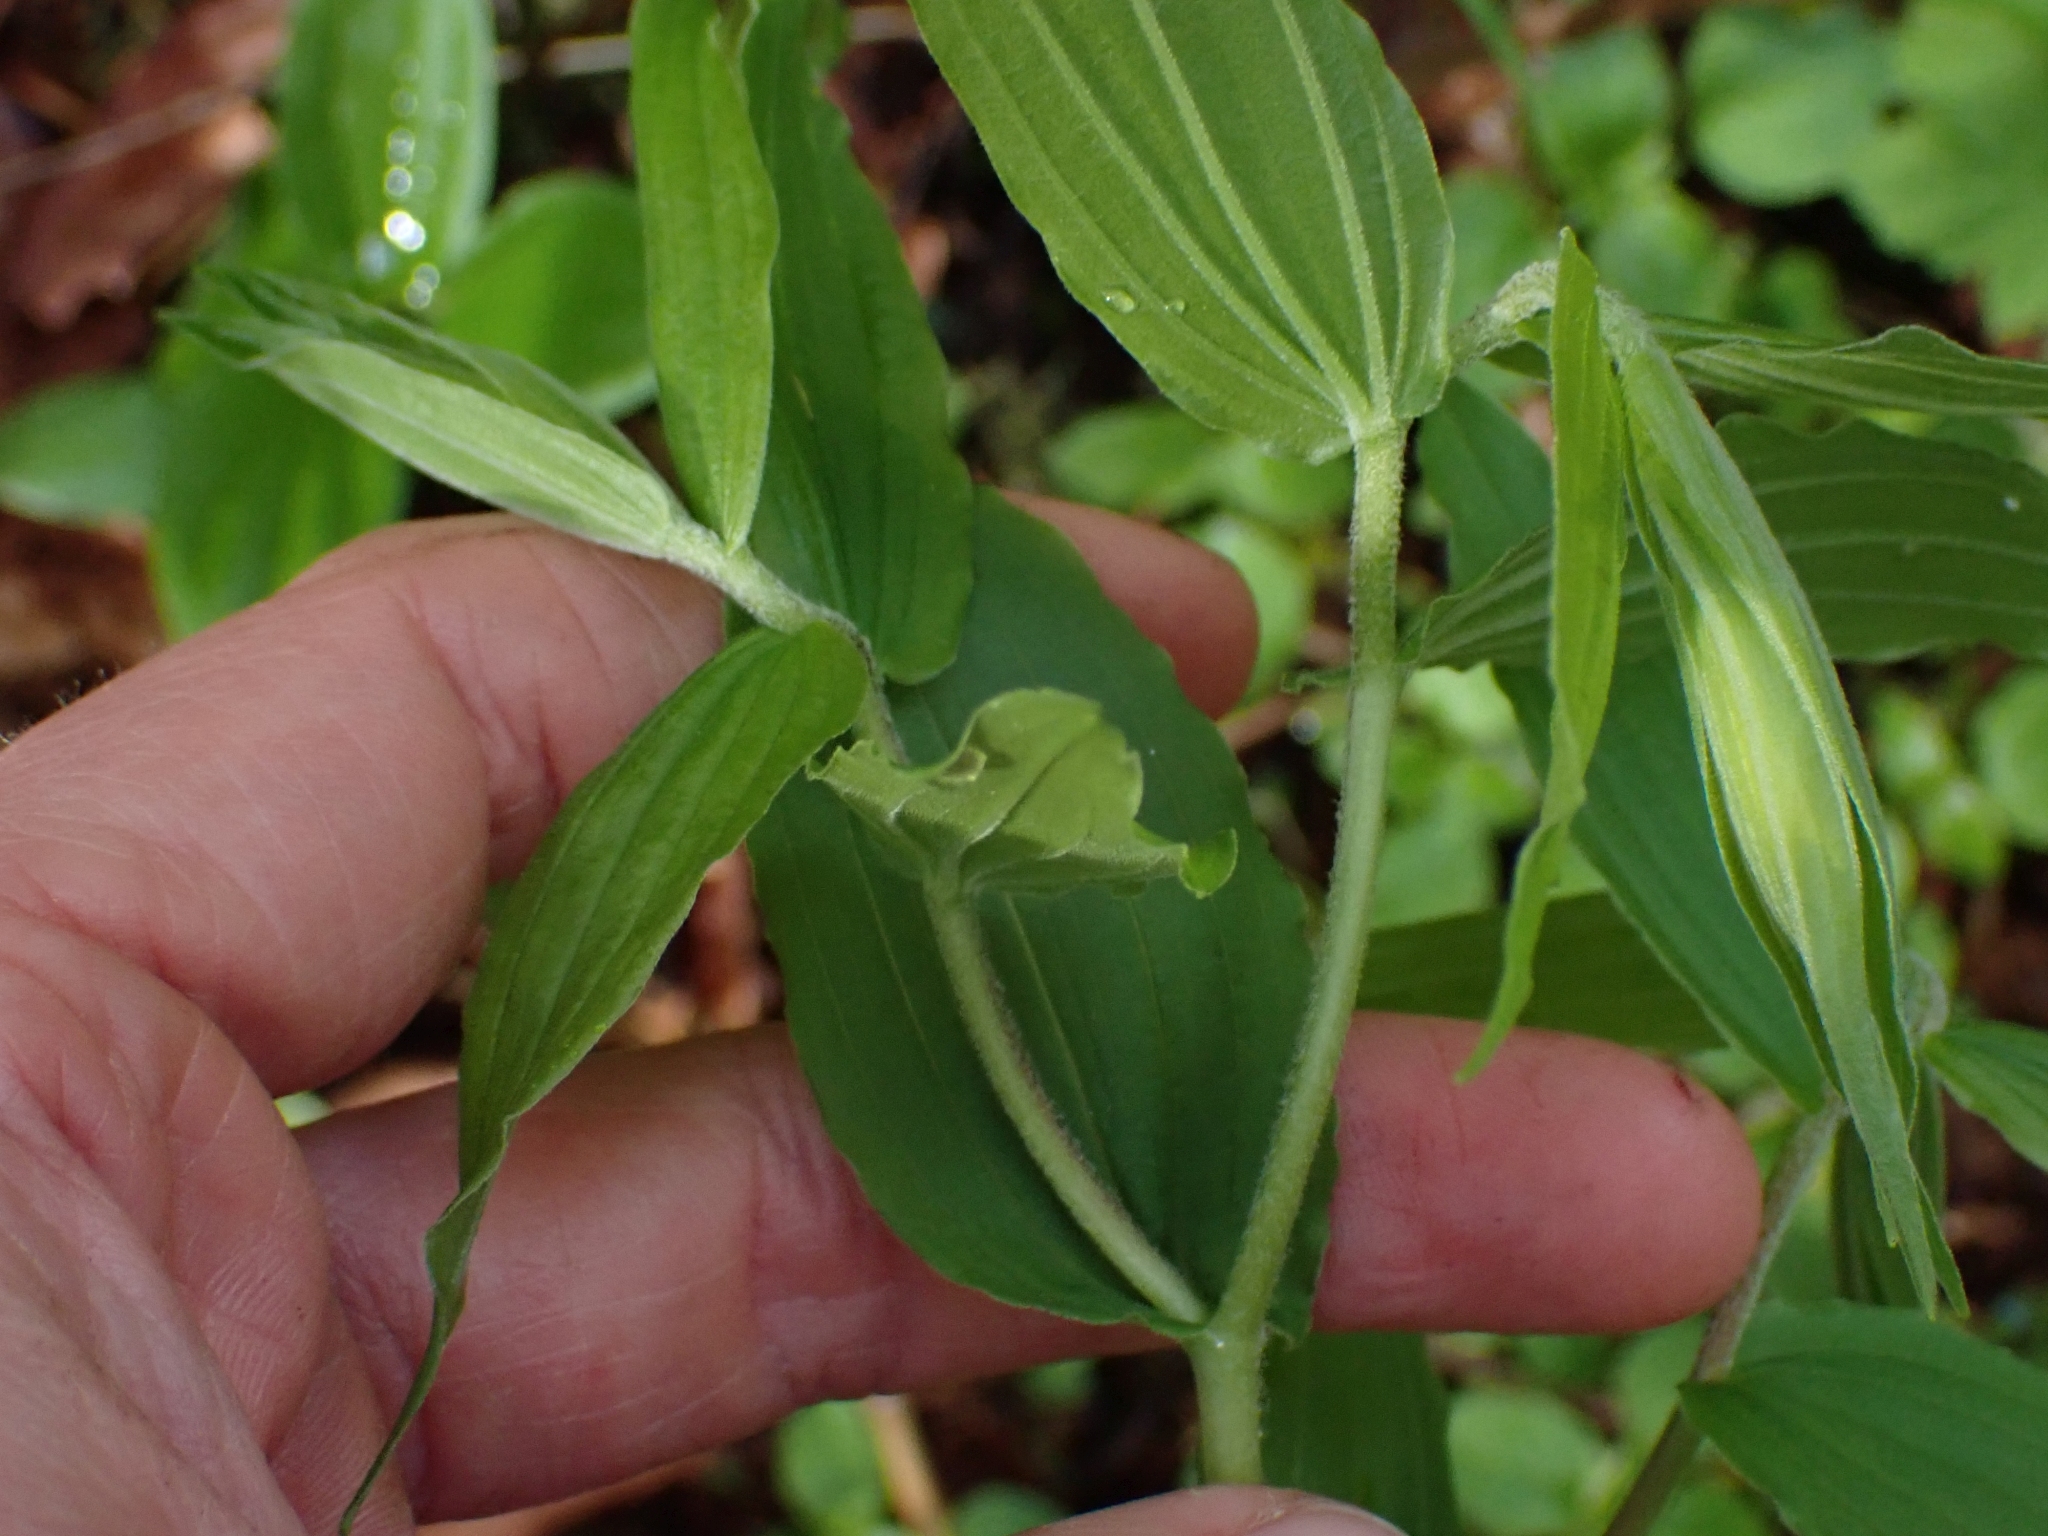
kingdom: Plantae
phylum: Tracheophyta
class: Liliopsida
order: Liliales
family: Liliaceae
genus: Prosartes
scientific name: Prosartes hookeri
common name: Fairy-bells
